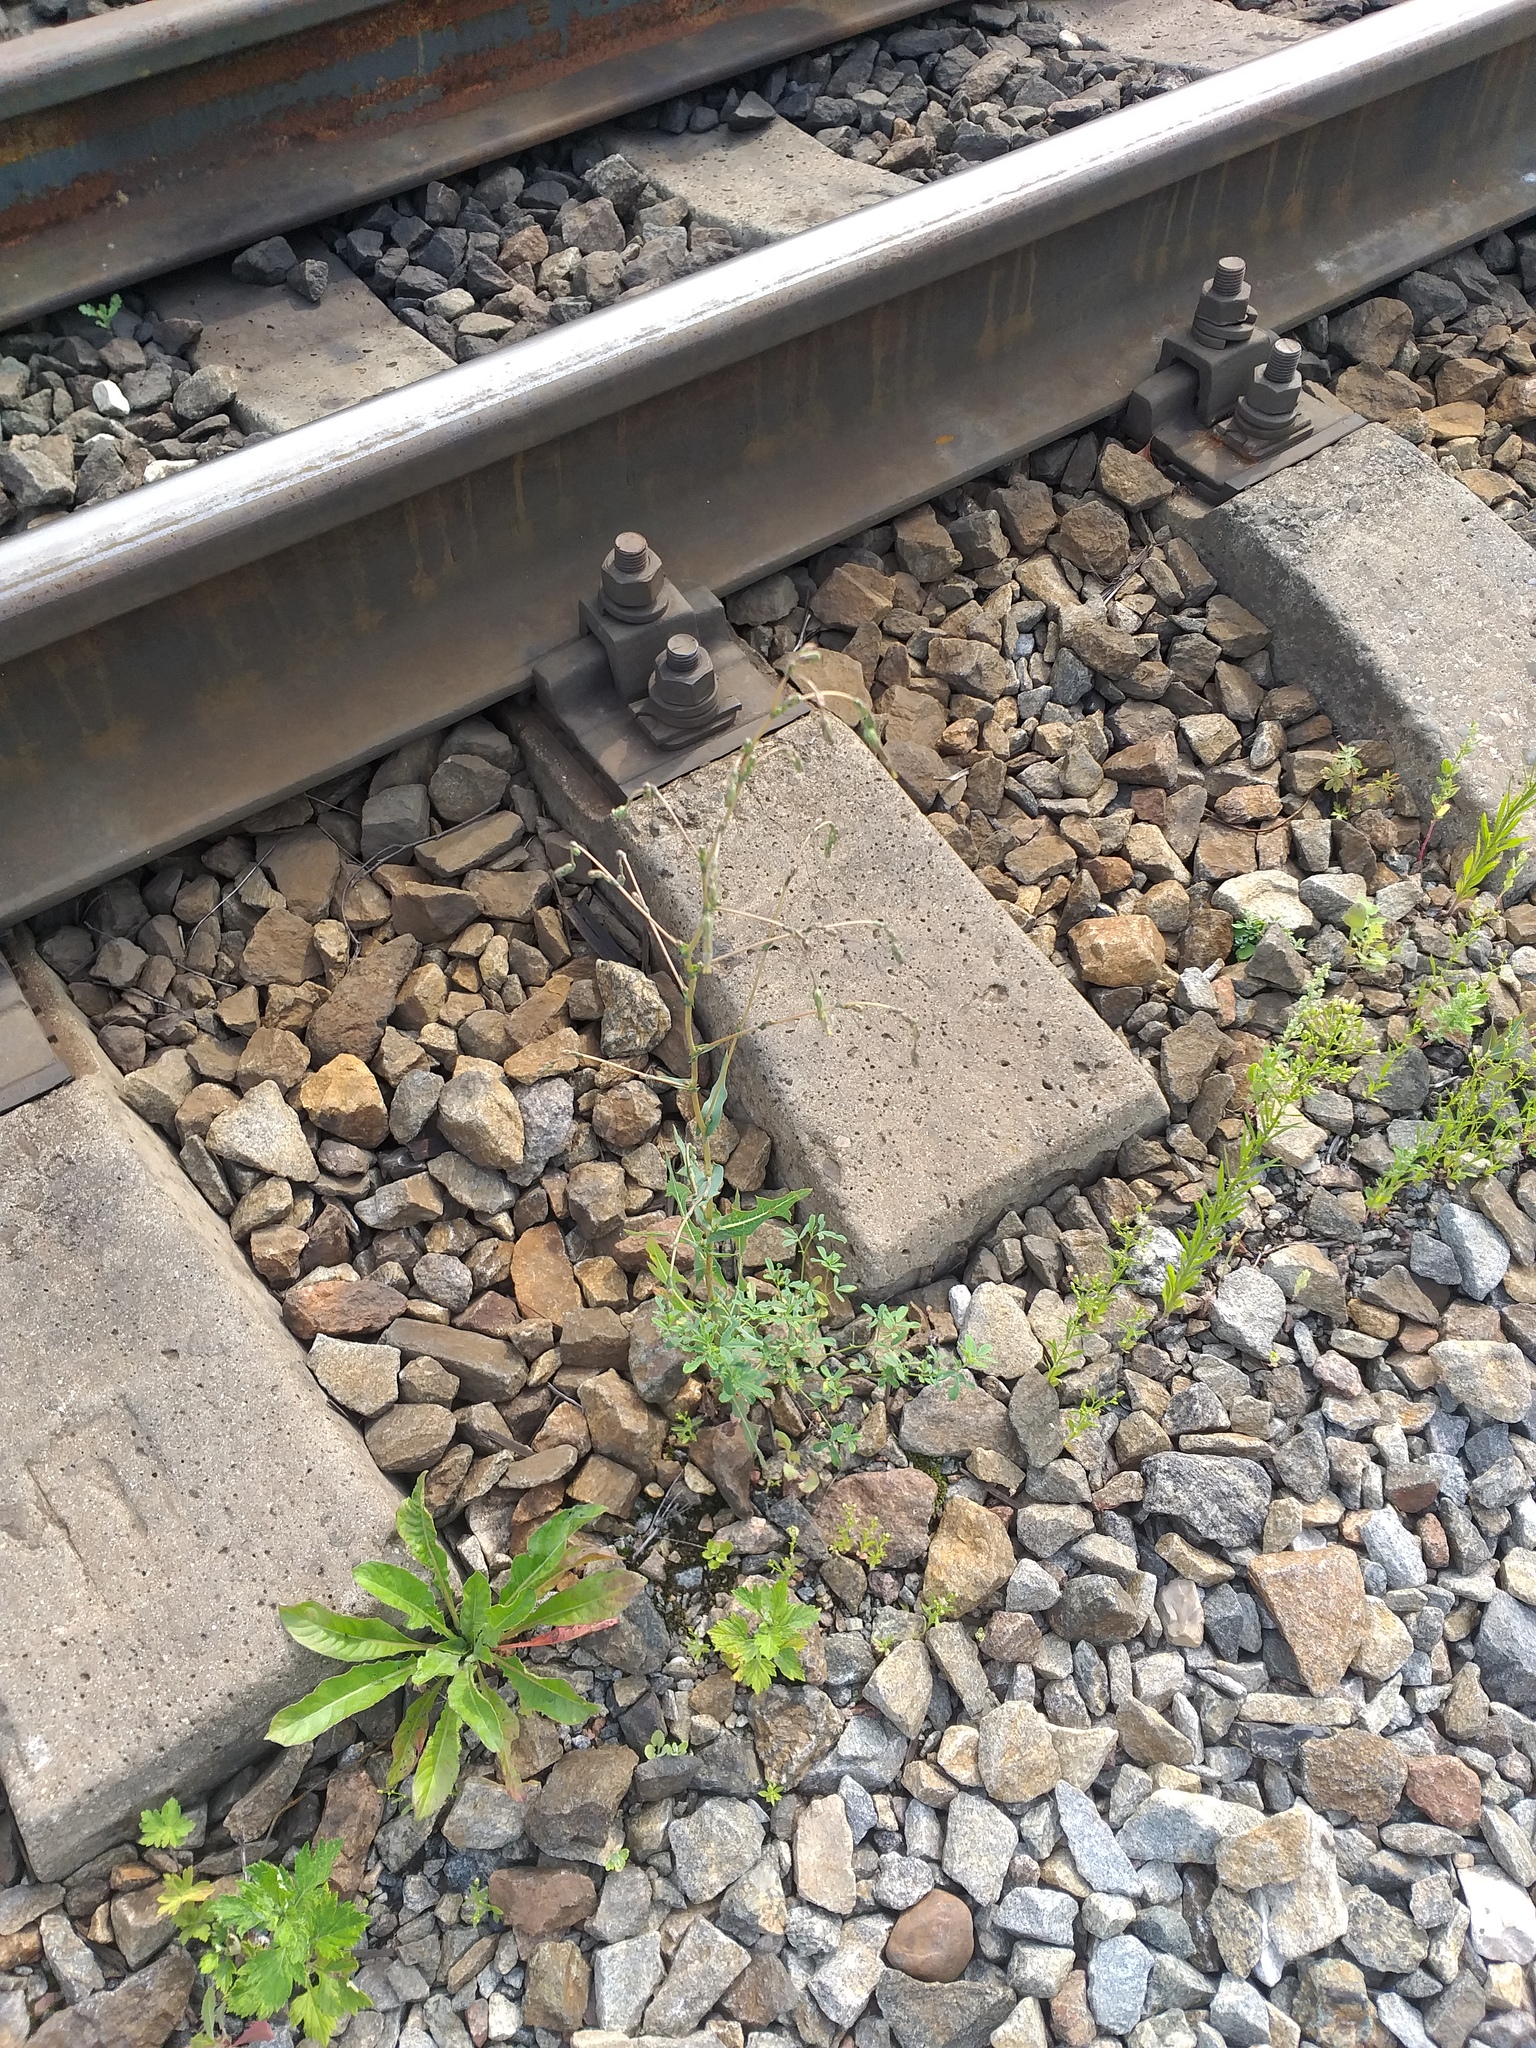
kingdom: Plantae
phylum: Tracheophyta
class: Magnoliopsida
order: Asterales
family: Asteraceae
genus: Lactuca
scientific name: Lactuca serriola
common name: Prickly lettuce
